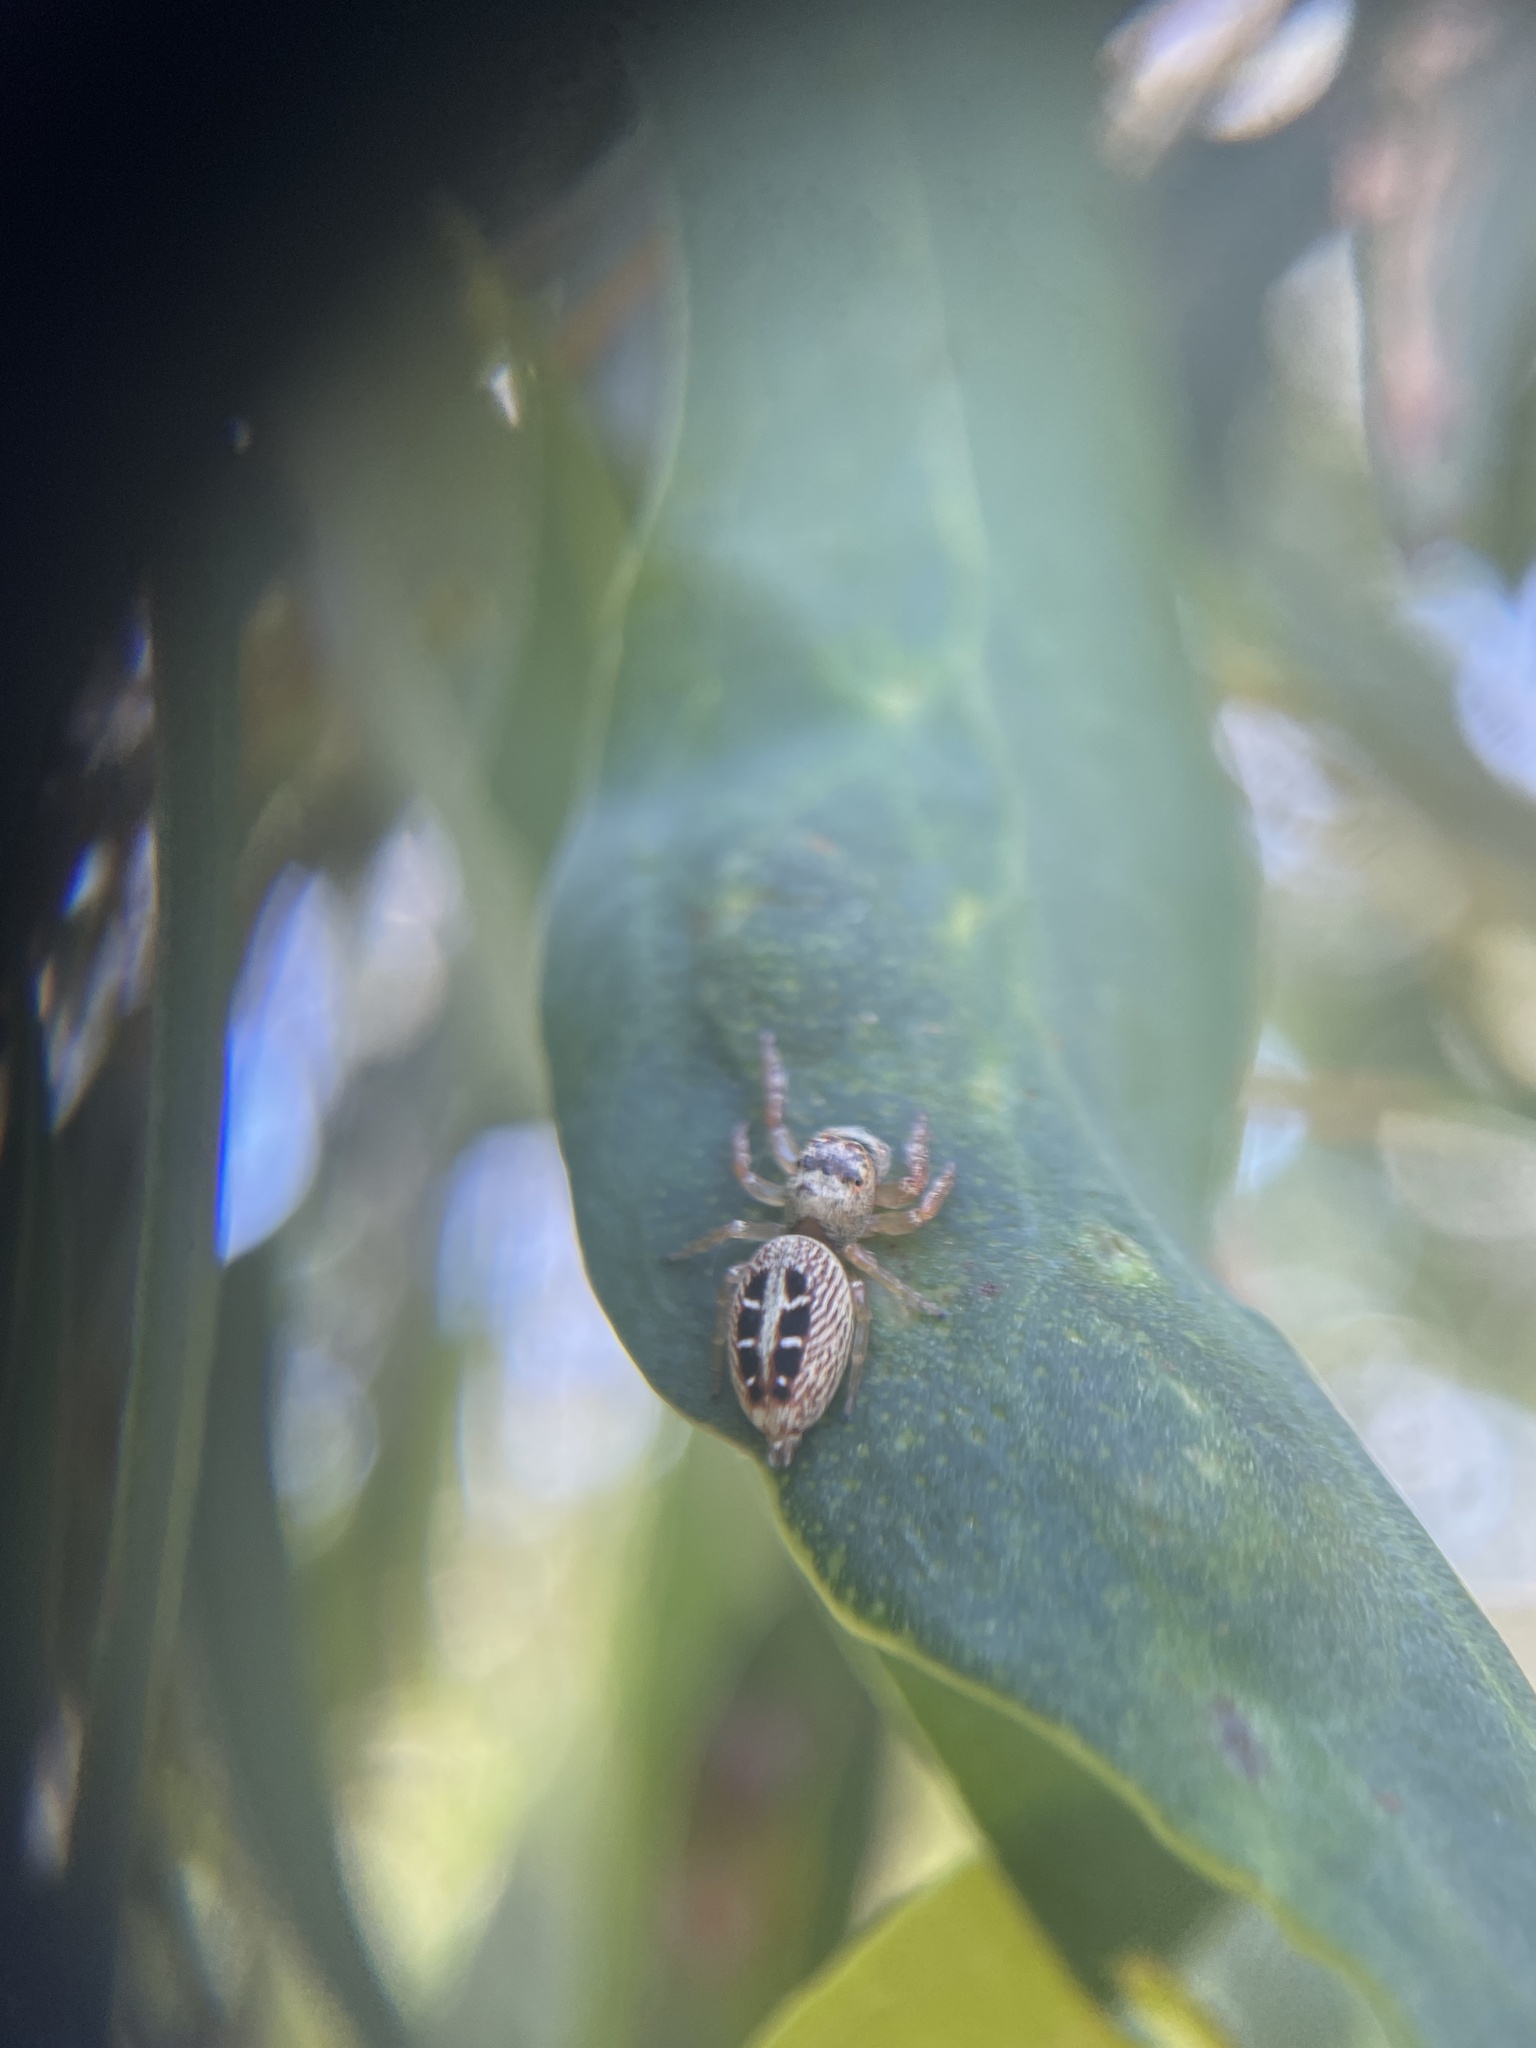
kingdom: Animalia
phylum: Arthropoda
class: Arachnida
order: Araneae
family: Salticidae
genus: Opisthoncus
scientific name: Opisthoncus sexmaculatus
